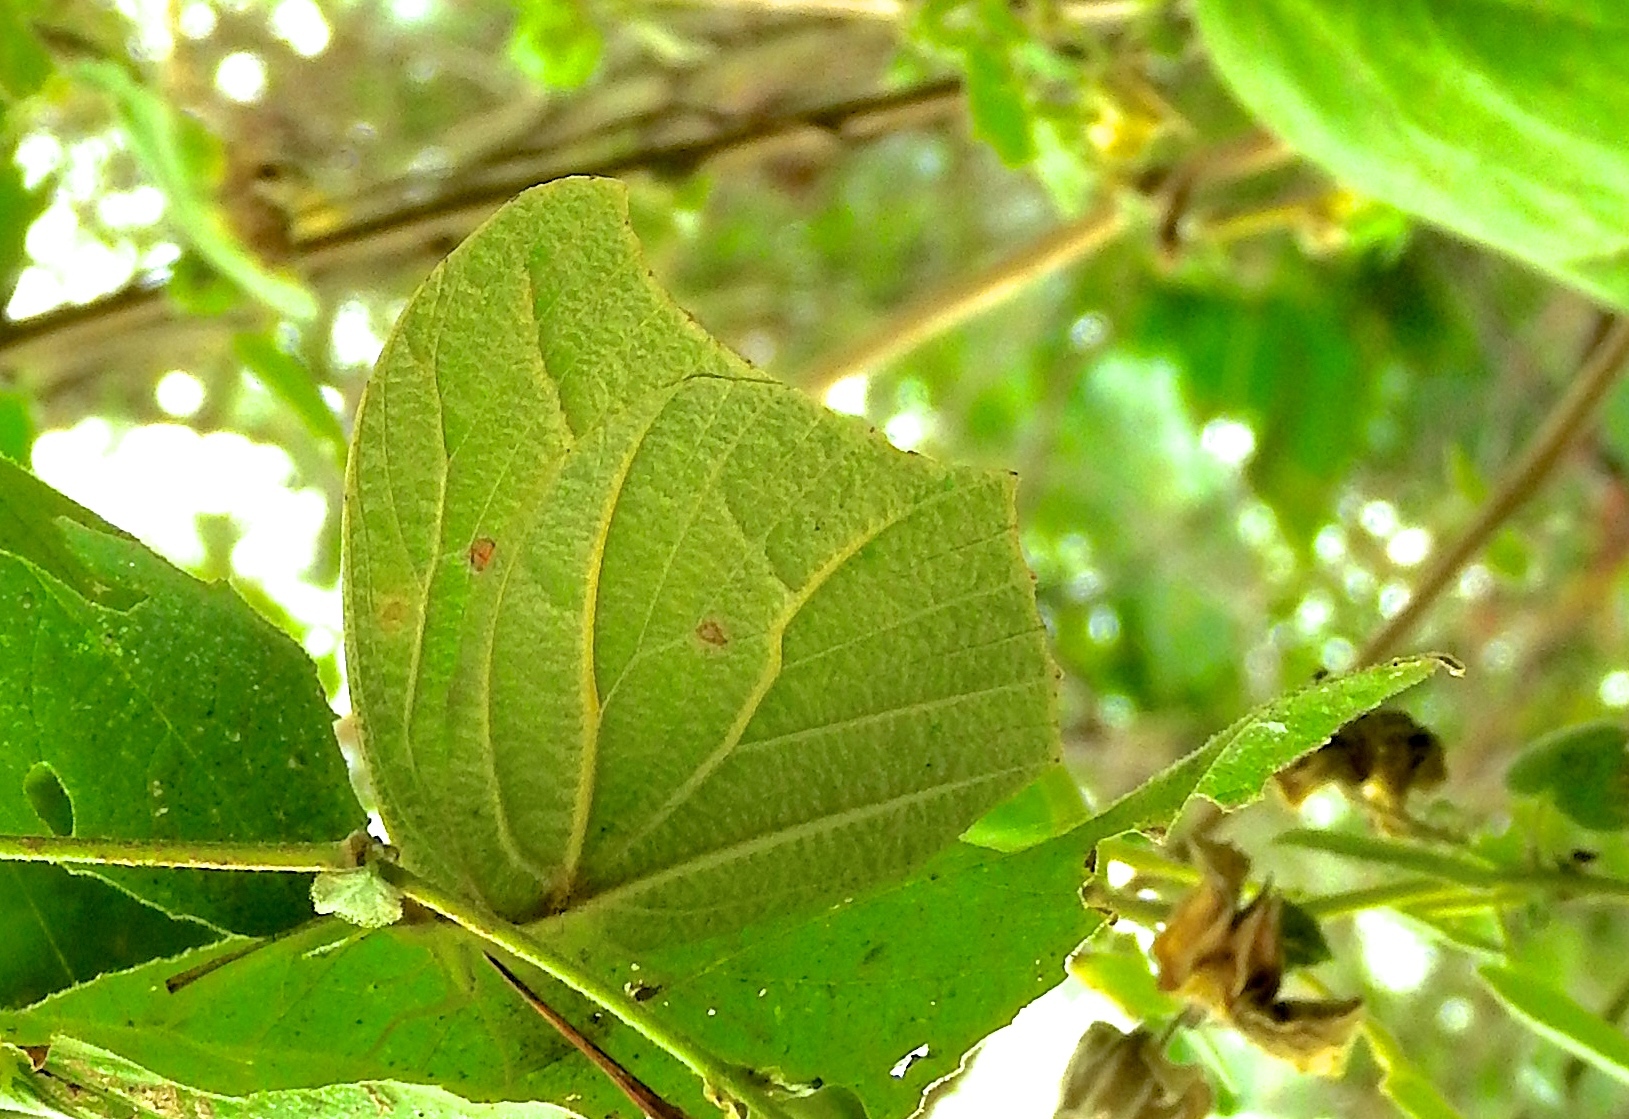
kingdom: Animalia
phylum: Arthropoda
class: Insecta
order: Lepidoptera
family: Pieridae
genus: Anteos
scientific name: Anteos clorinde
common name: White angled sulphur
